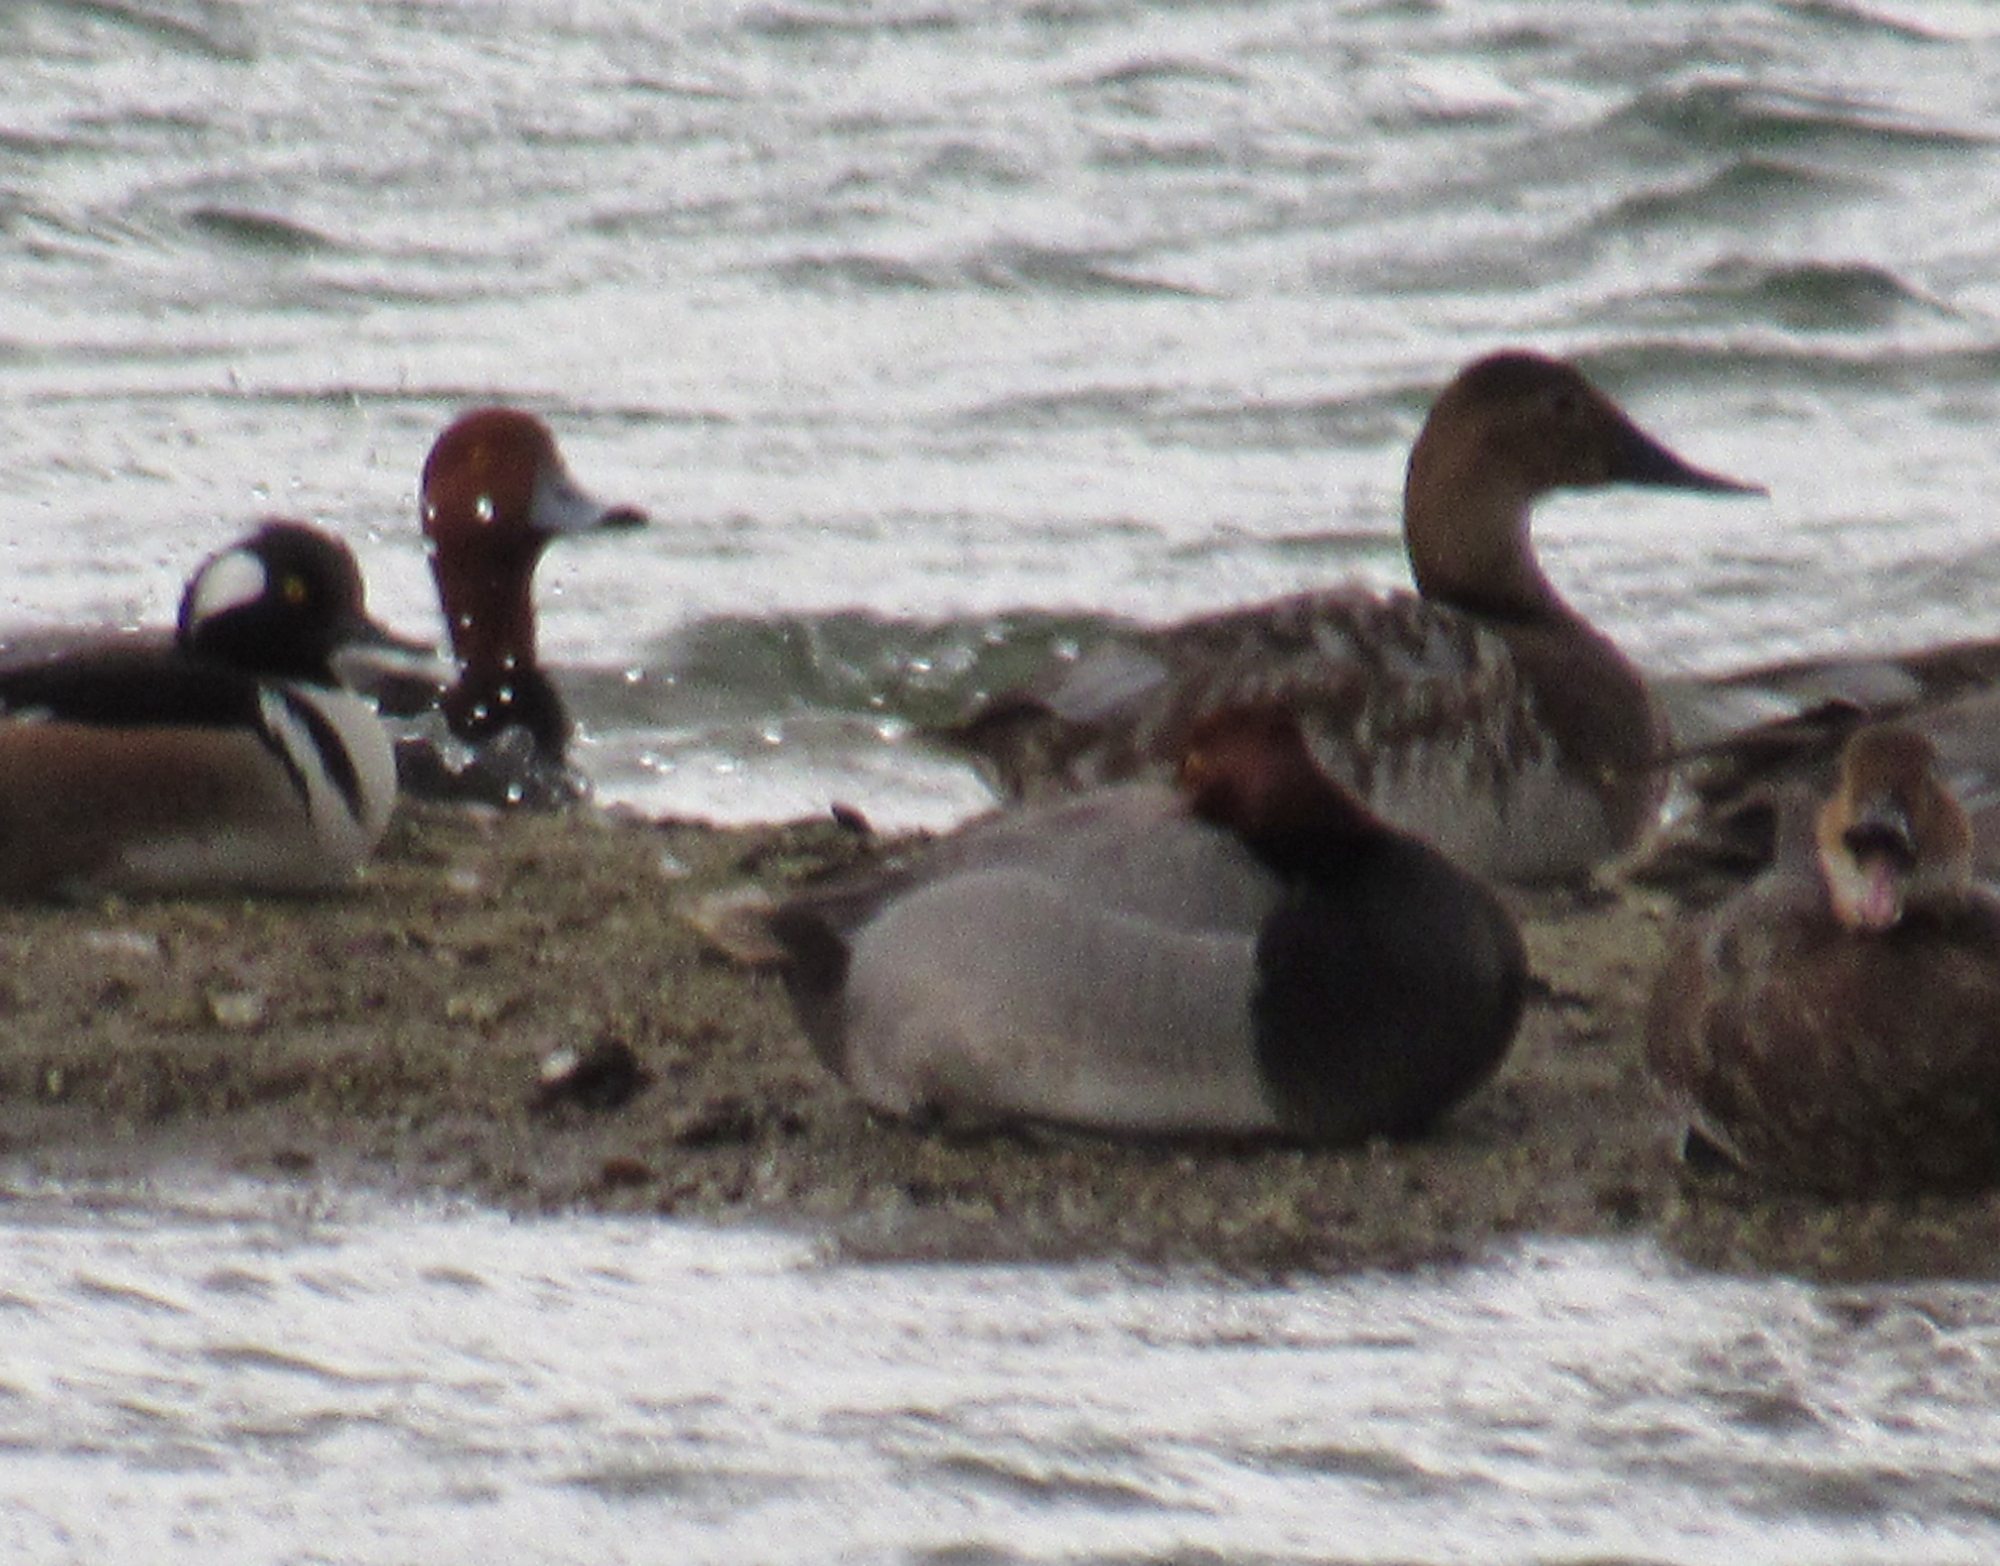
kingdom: Animalia
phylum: Chordata
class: Aves
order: Anseriformes
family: Anatidae
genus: Aythya
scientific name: Aythya americana
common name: Redhead
